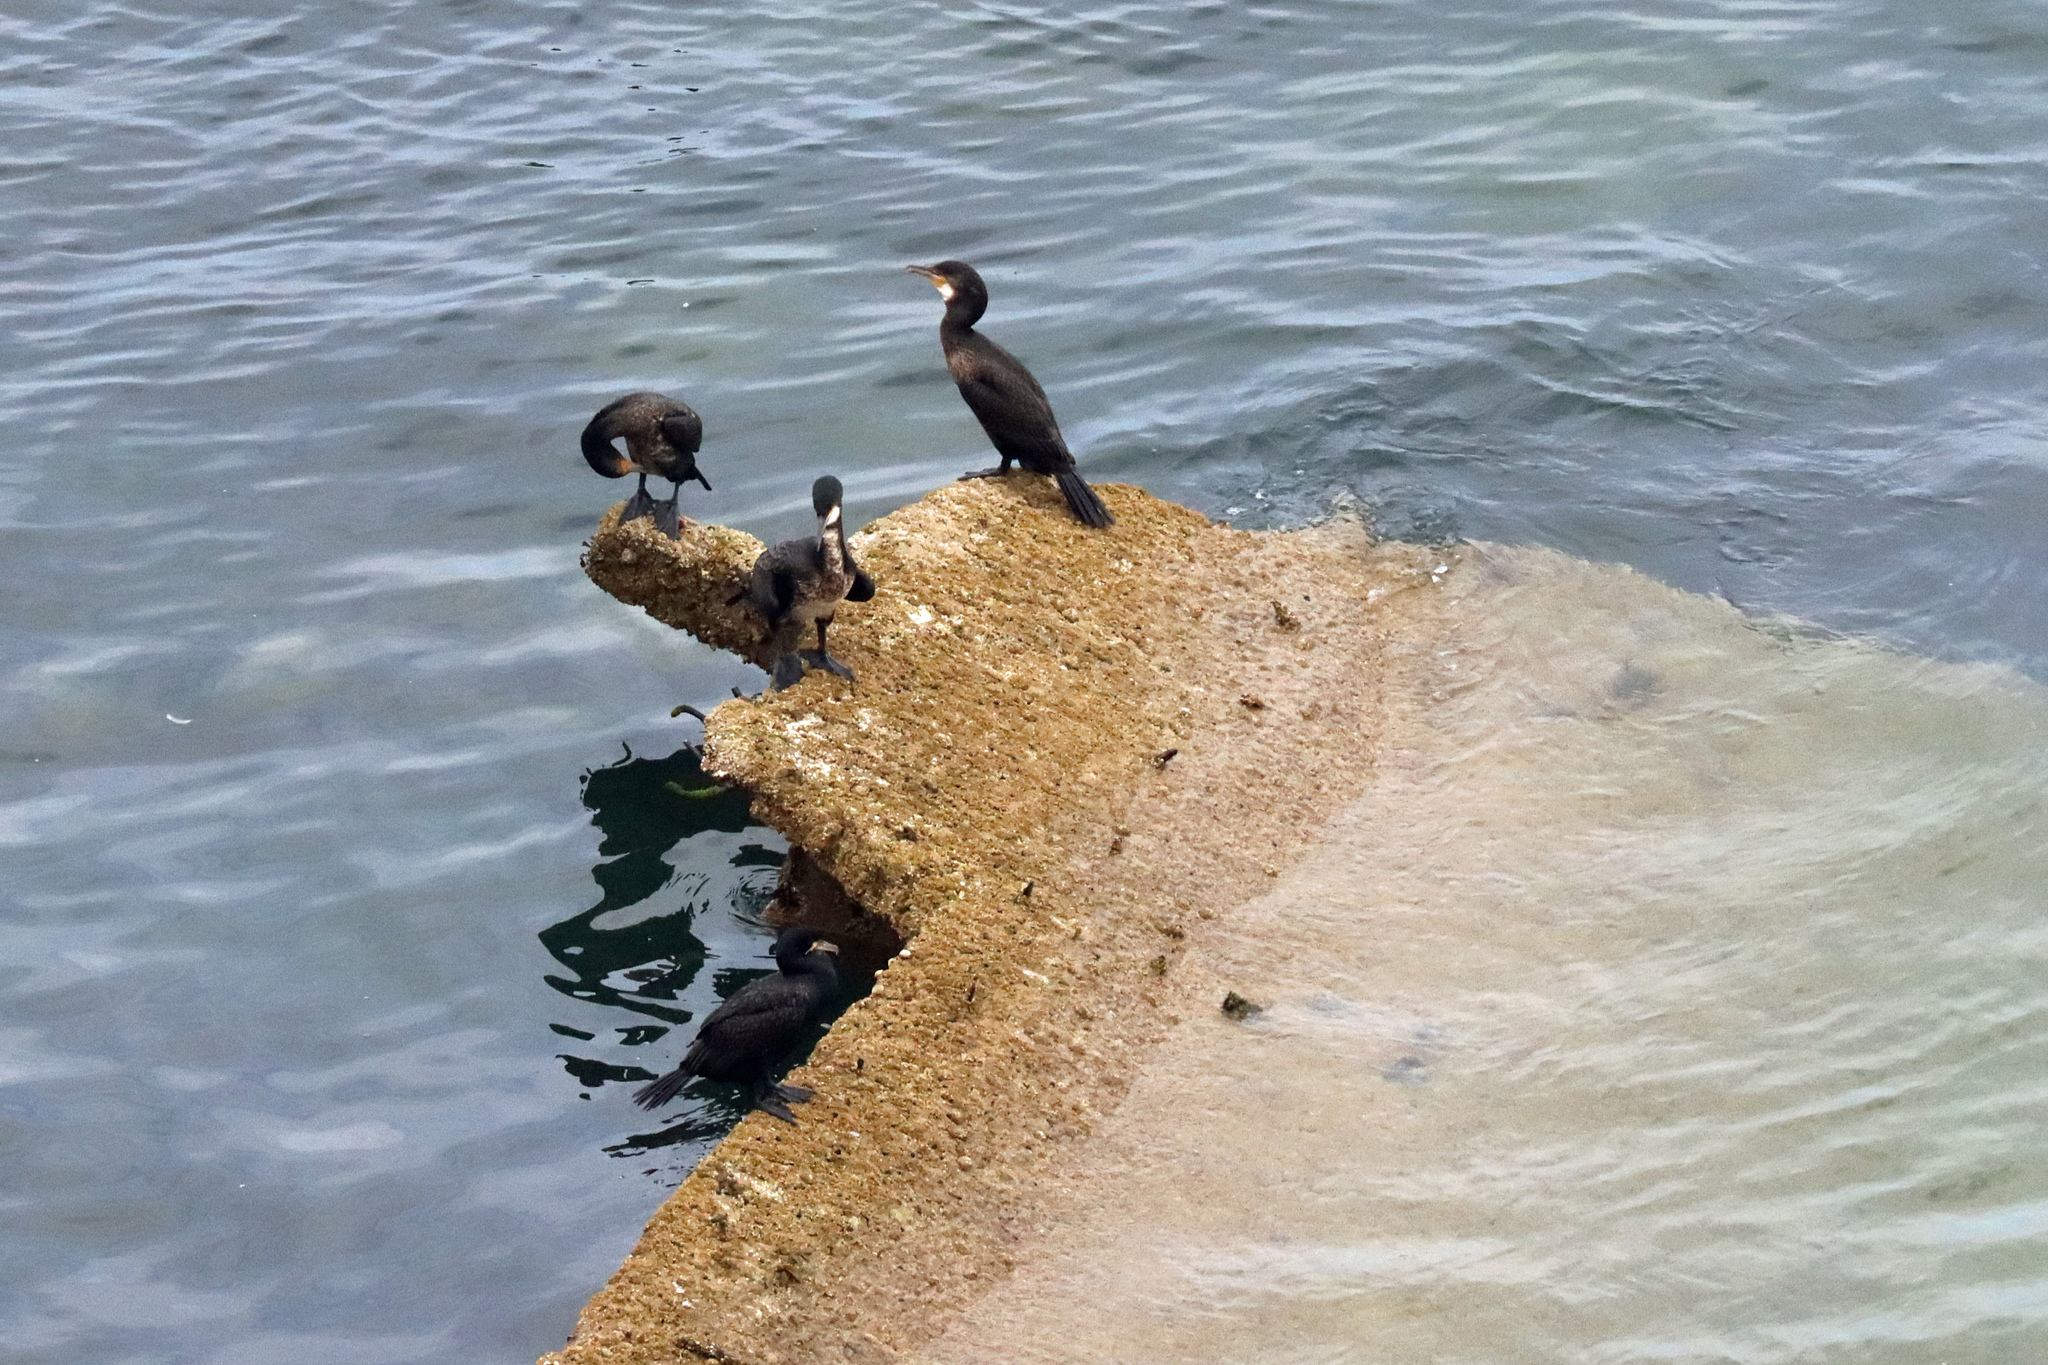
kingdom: Animalia
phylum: Chordata
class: Aves
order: Suliformes
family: Phalacrocoracidae
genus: Phalacrocorax
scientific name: Phalacrocorax carbo
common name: Great cormorant
